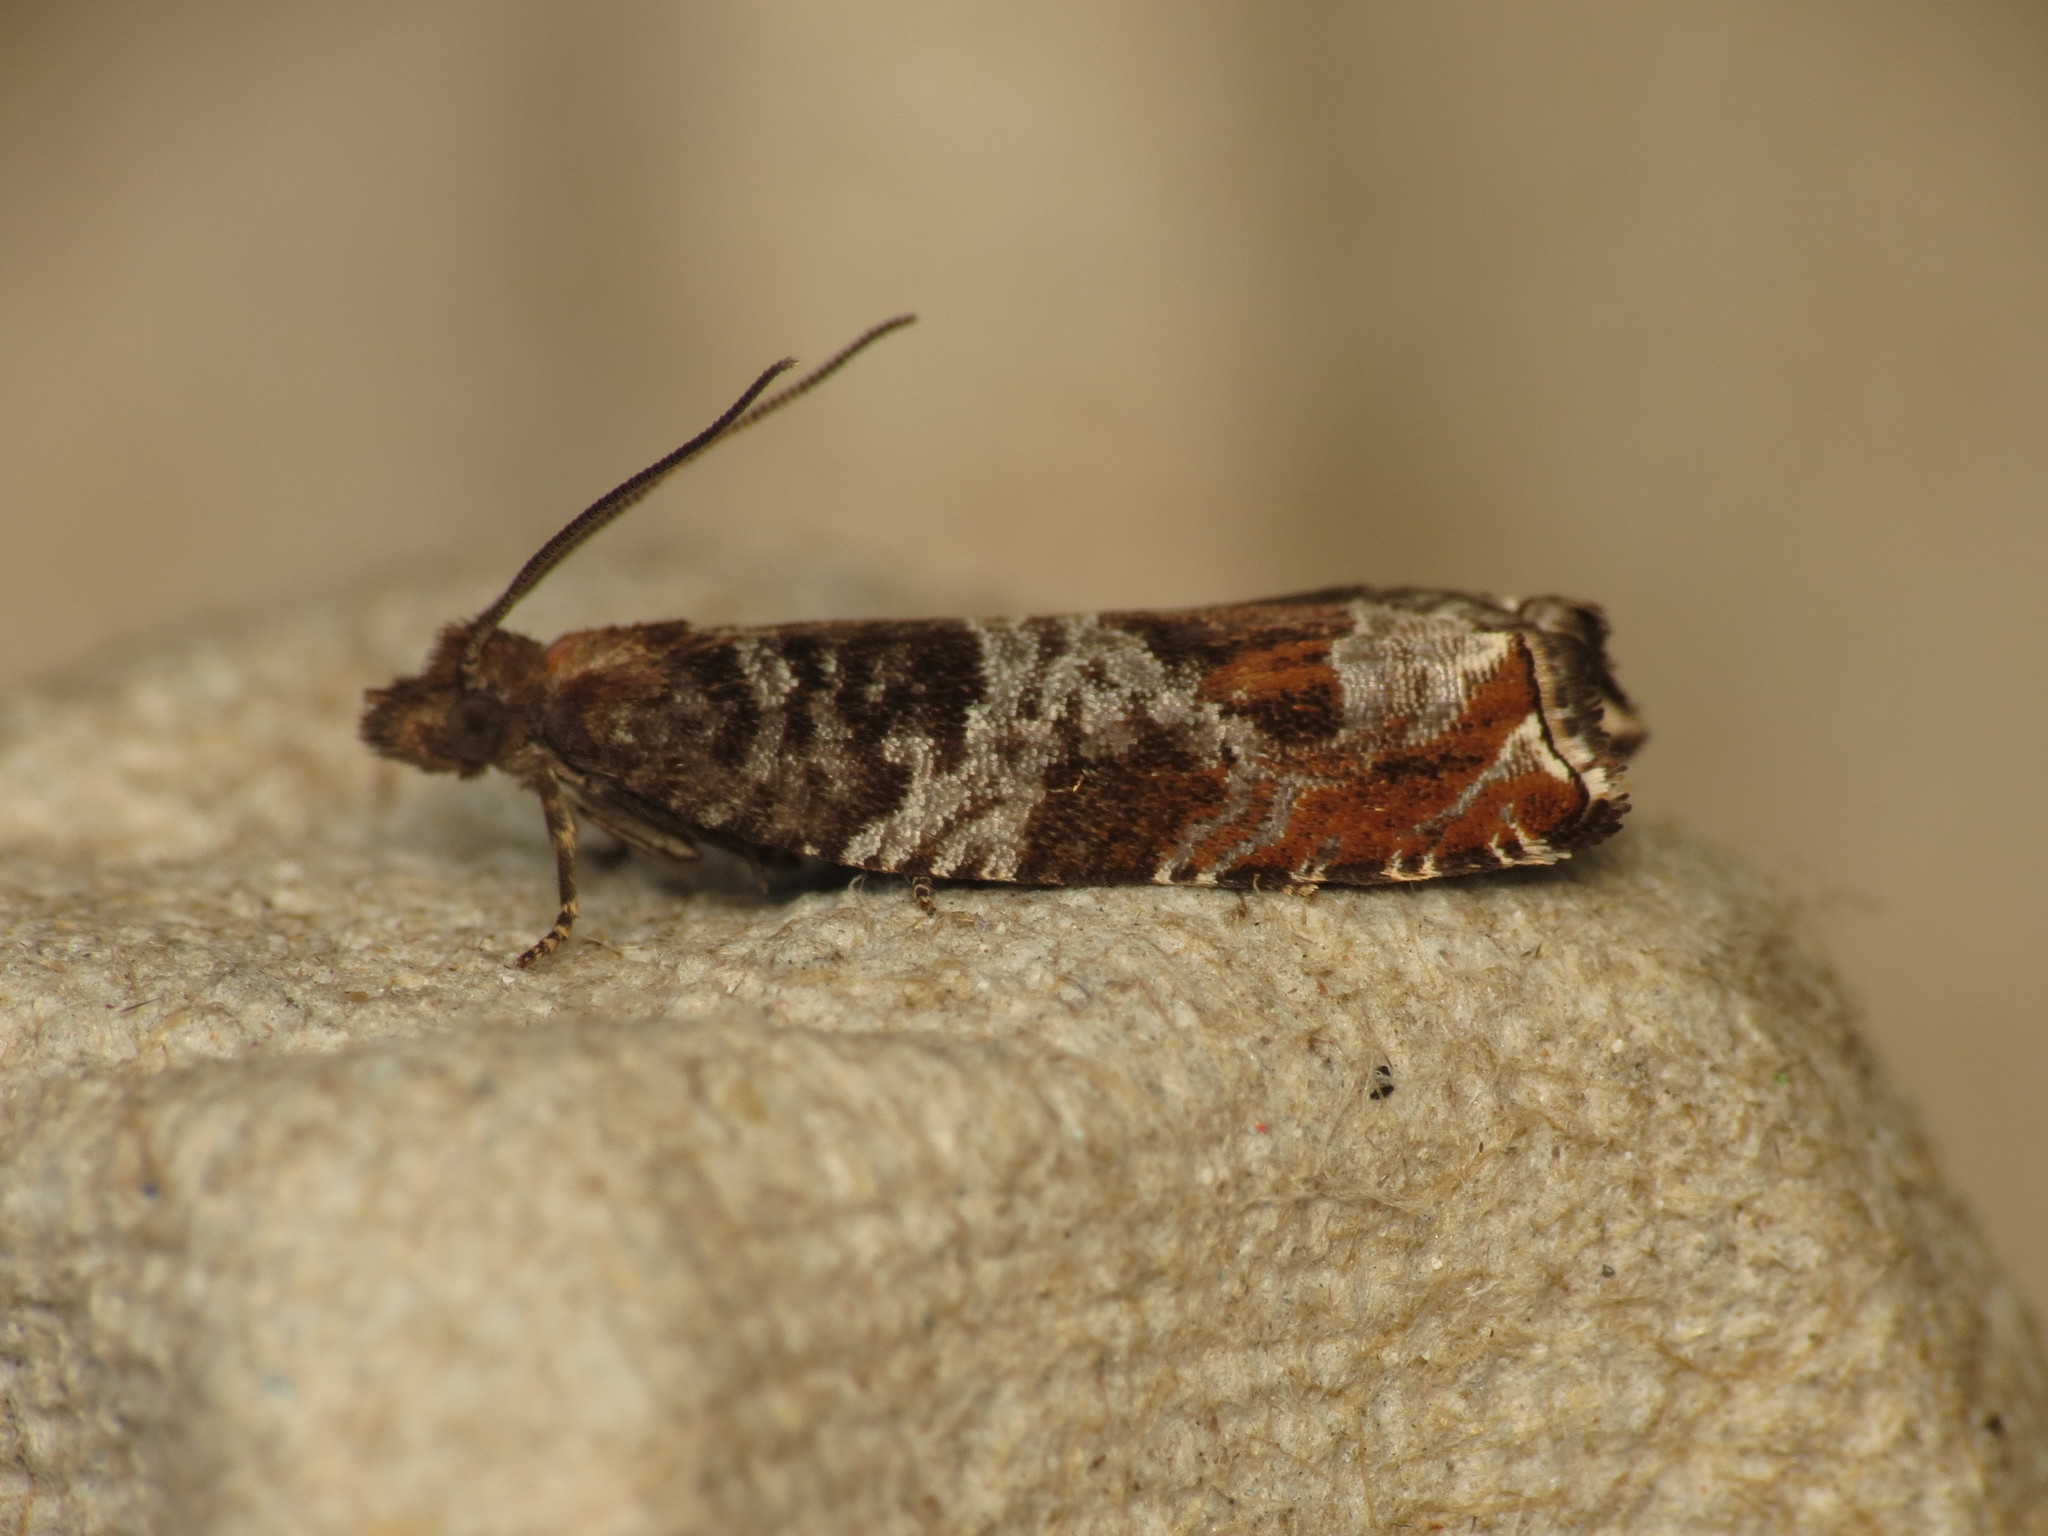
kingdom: Animalia
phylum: Arthropoda
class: Insecta
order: Lepidoptera
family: Tortricidae
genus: Ancylis
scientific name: Ancylis achatana
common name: Triangle-marked roller
